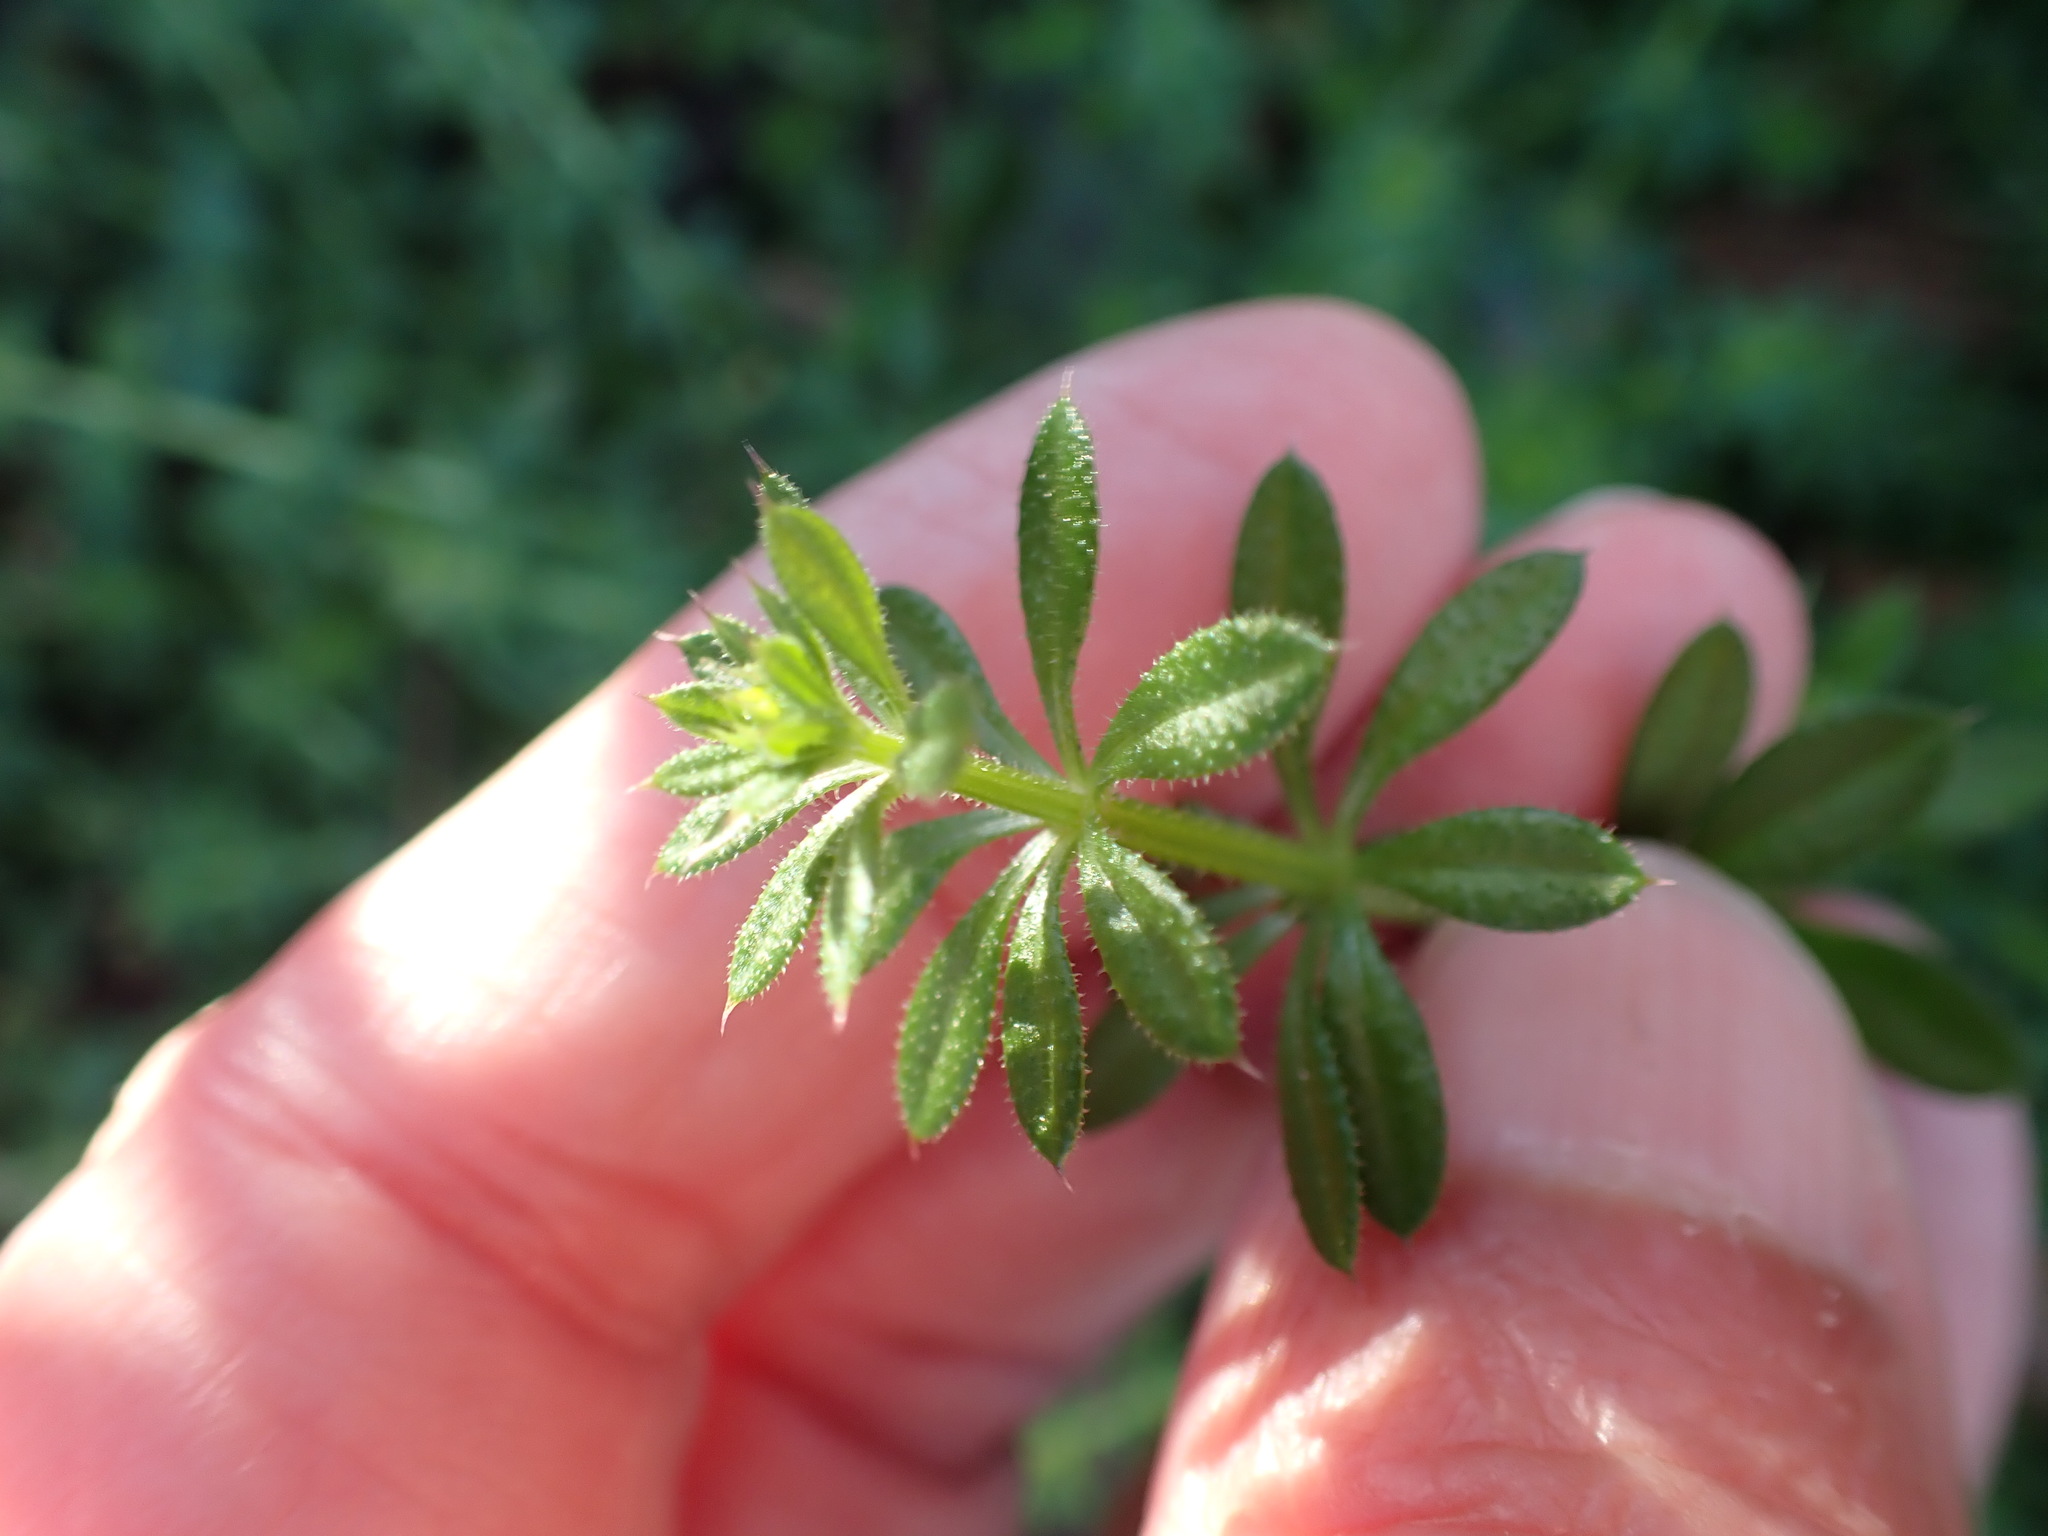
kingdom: Plantae
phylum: Tracheophyta
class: Magnoliopsida
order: Gentianales
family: Rubiaceae
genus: Galium
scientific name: Galium aparine
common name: Cleavers
